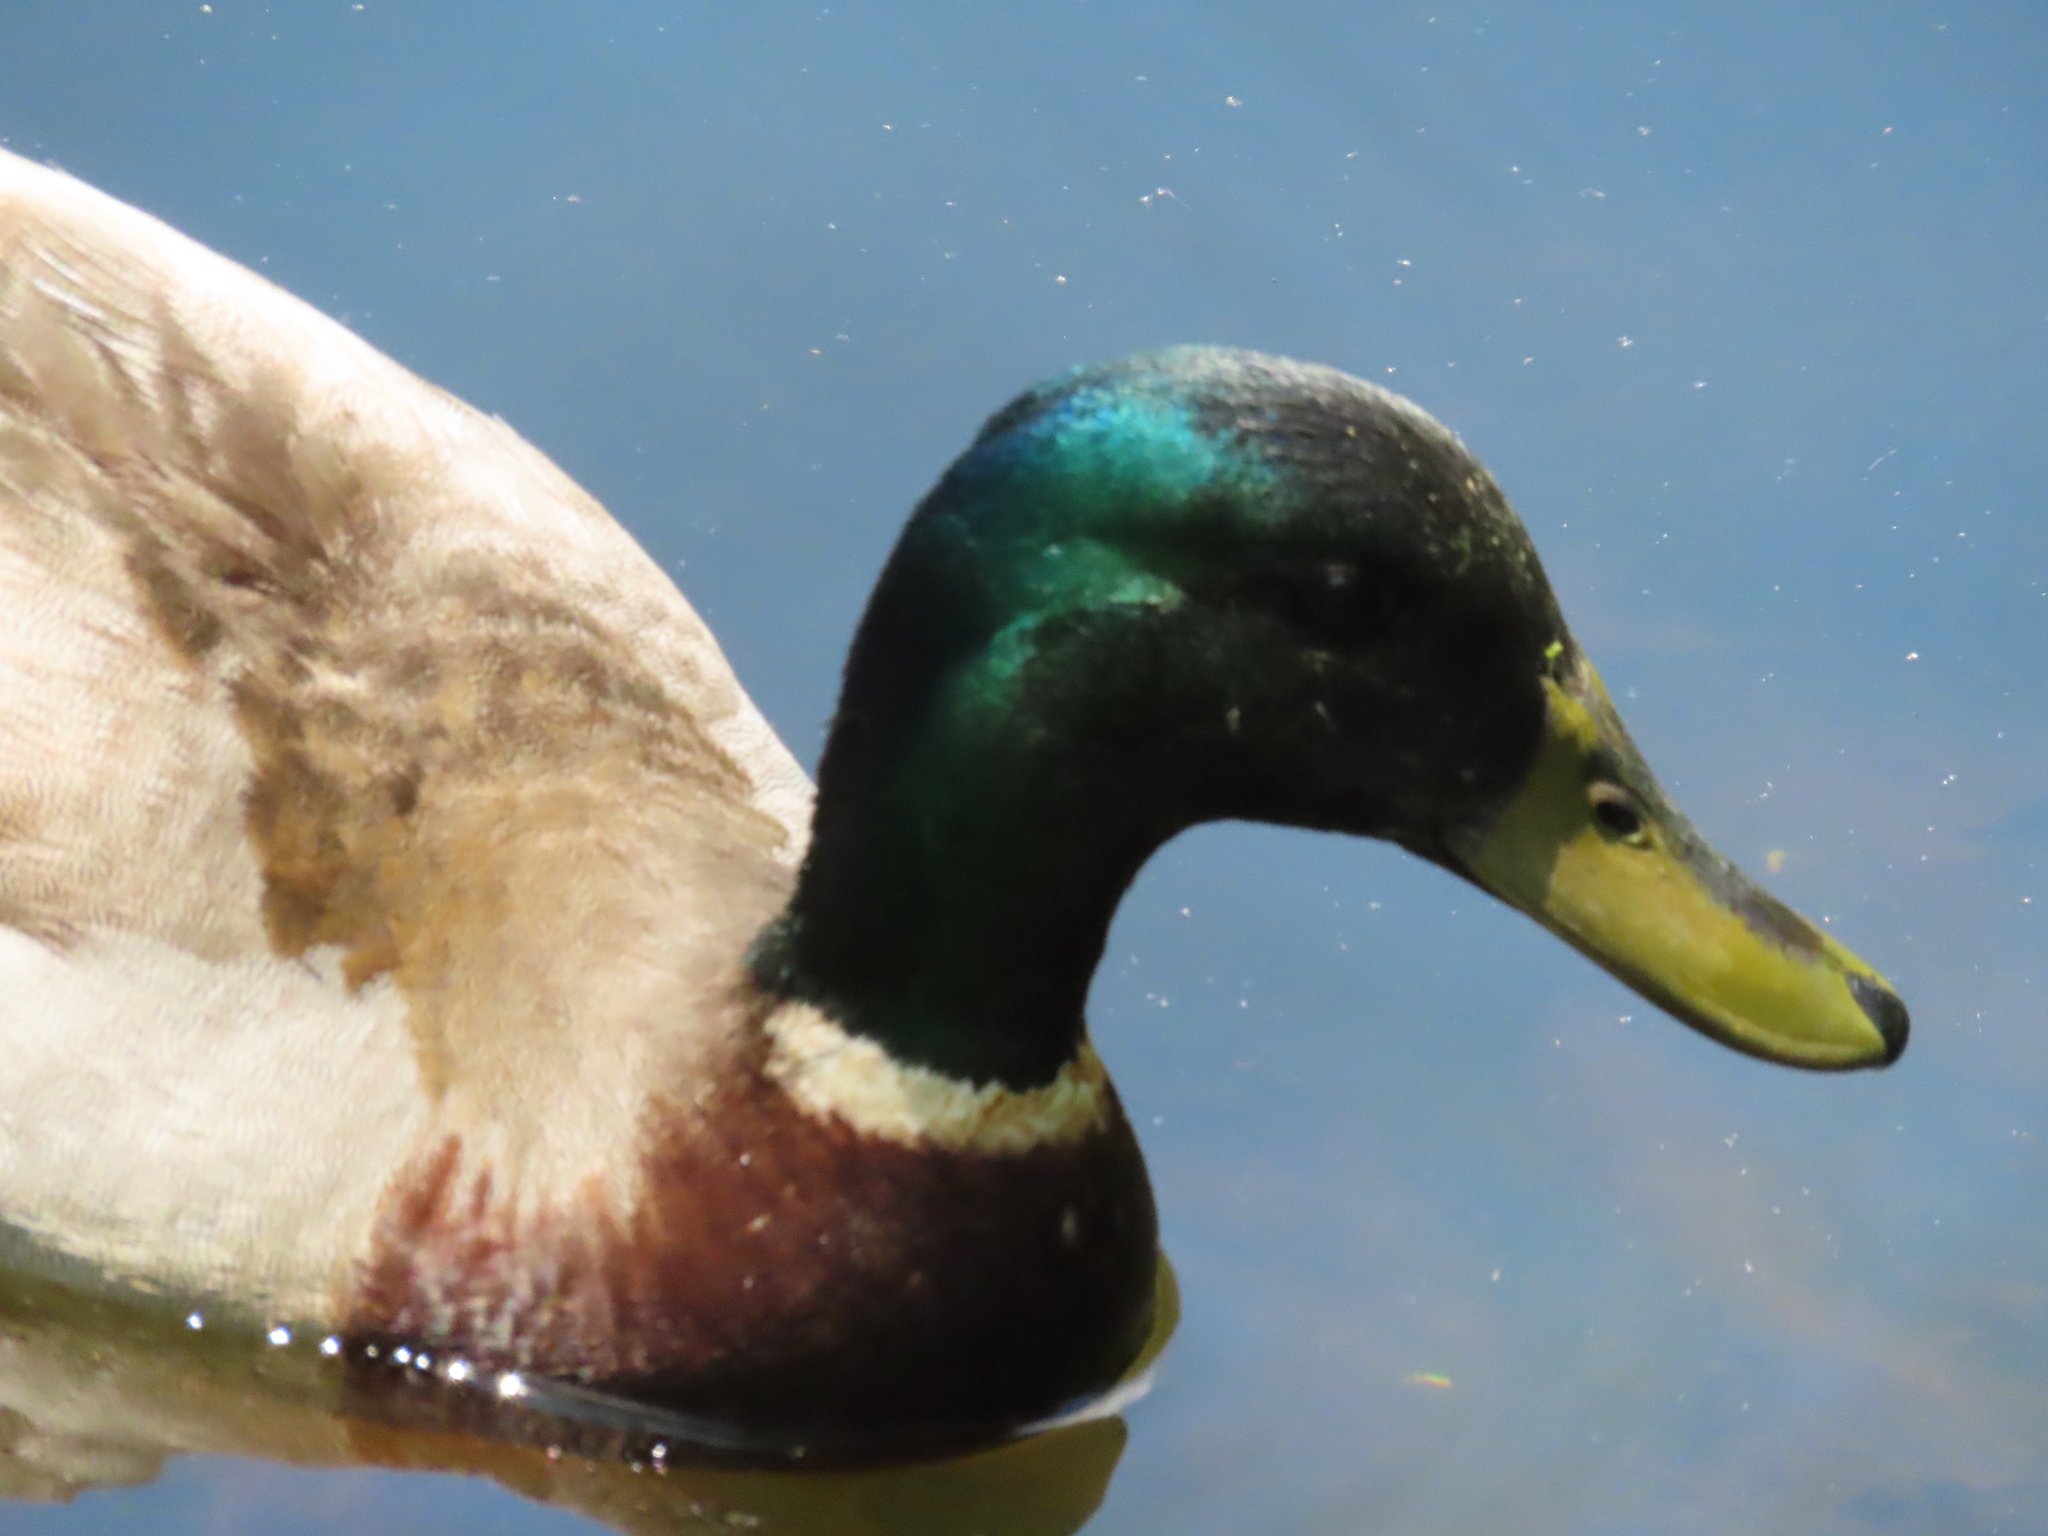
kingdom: Animalia
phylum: Chordata
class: Aves
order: Anseriformes
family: Anatidae
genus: Anas
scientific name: Anas platyrhynchos
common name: Mallard
